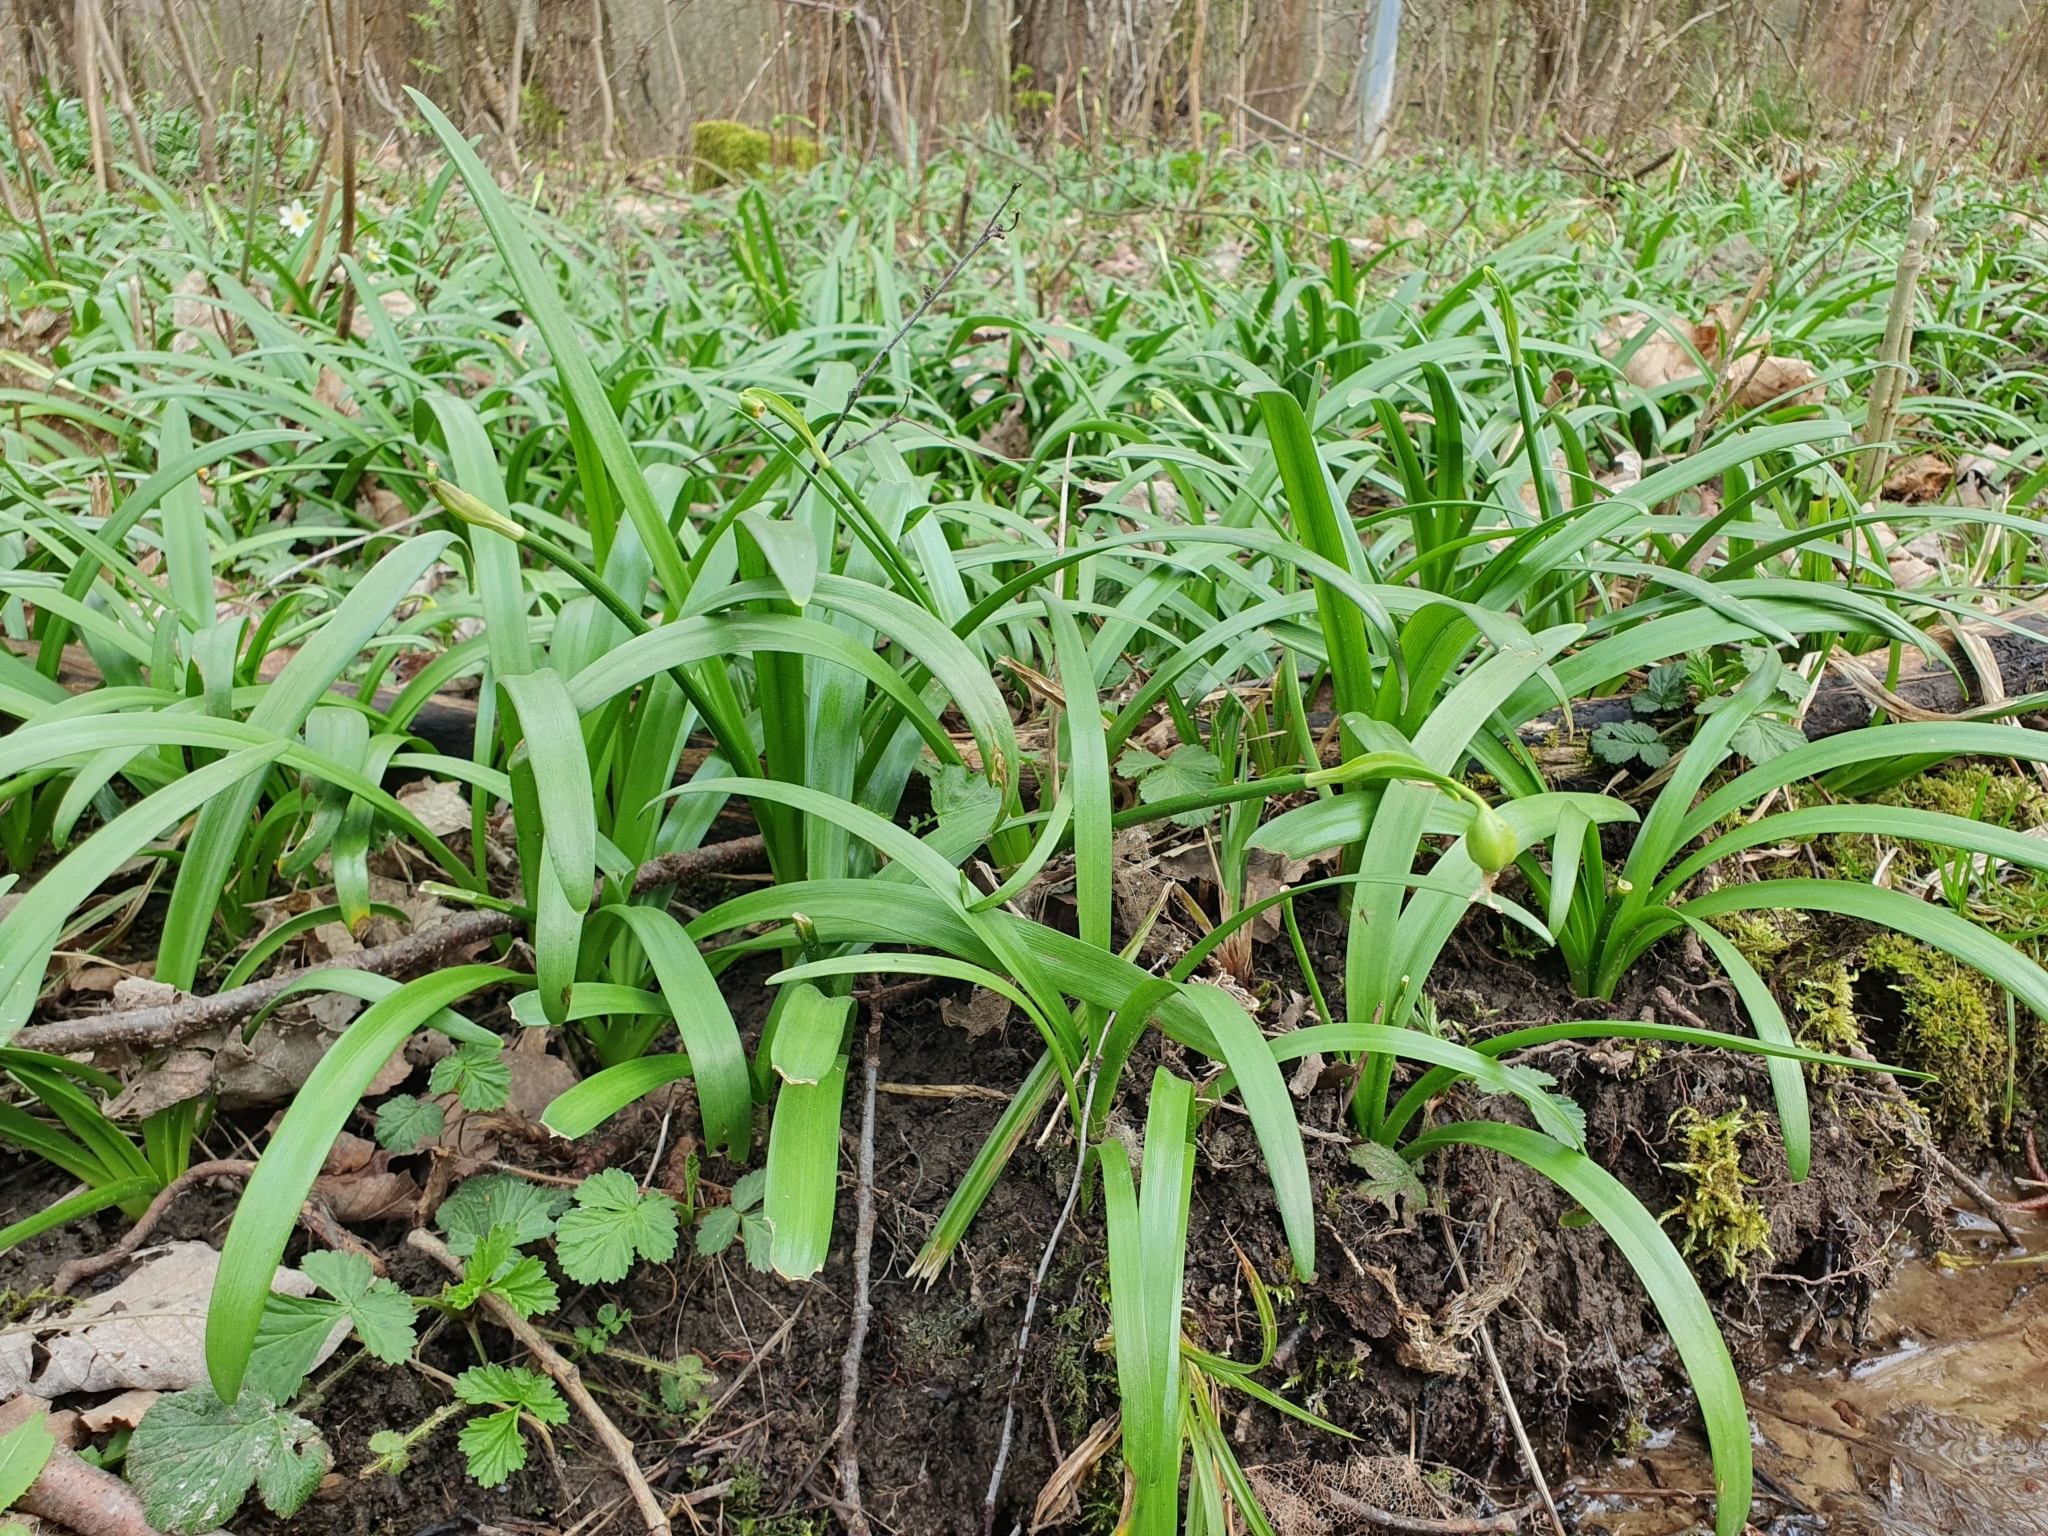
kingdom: Plantae
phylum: Tracheophyta
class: Liliopsida
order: Asparagales
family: Amaryllidaceae
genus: Leucojum
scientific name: Leucojum vernum
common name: Spring snowflake
